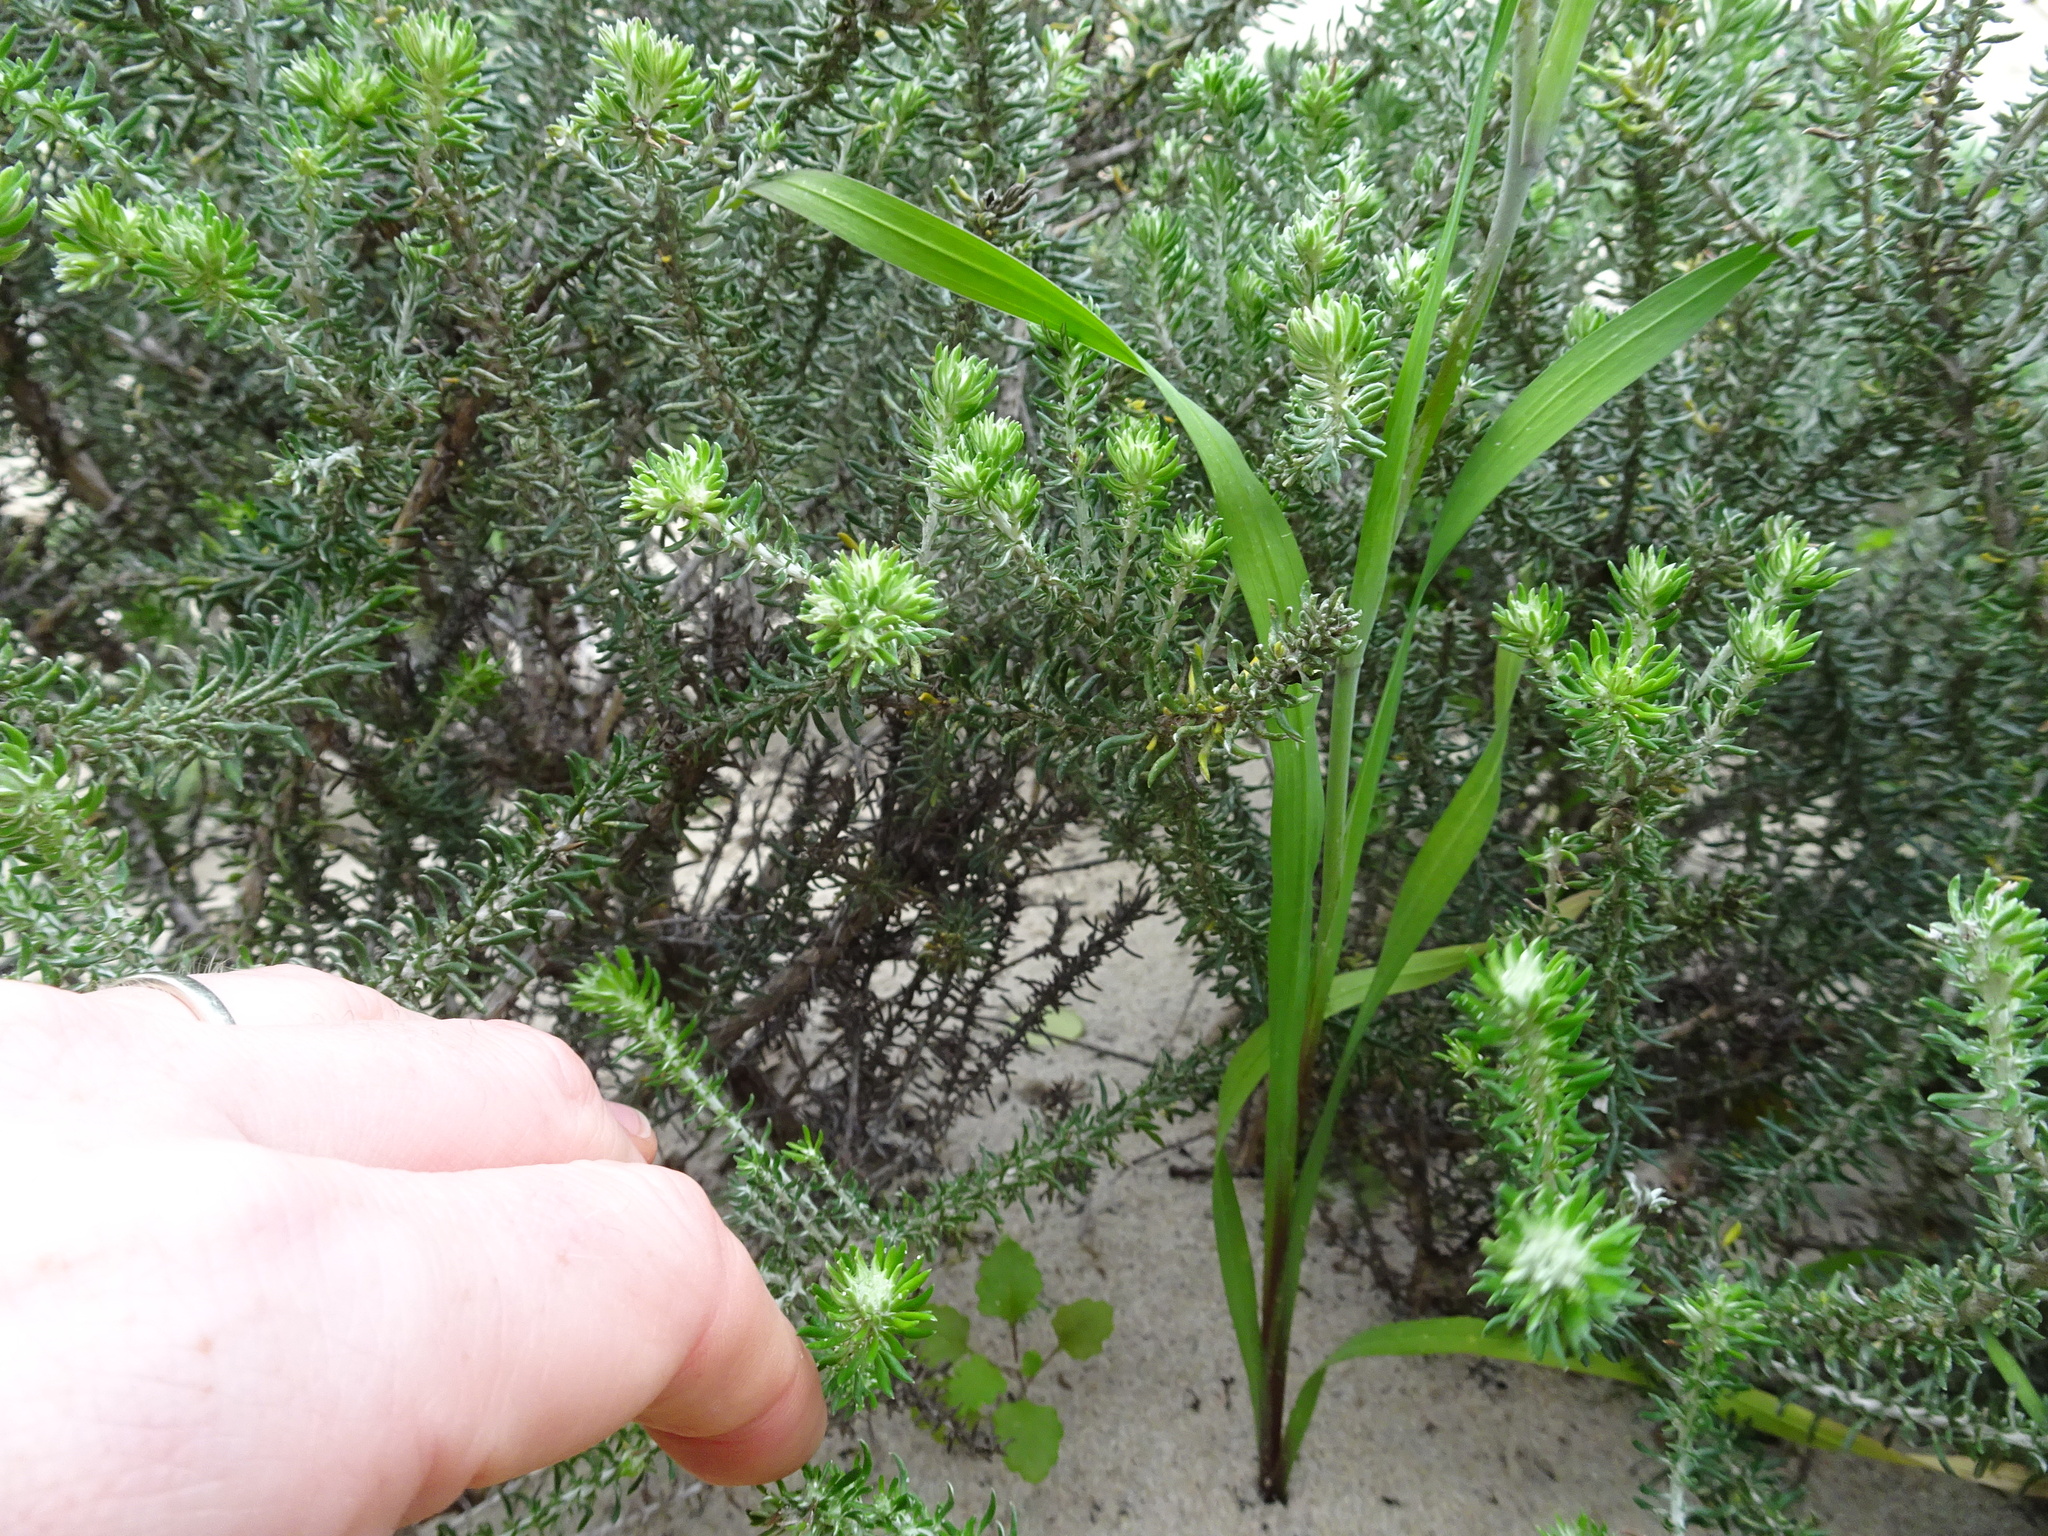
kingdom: Plantae
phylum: Tracheophyta
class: Liliopsida
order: Asparagales
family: Iridaceae
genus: Gladiolus
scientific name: Gladiolus cunonius
